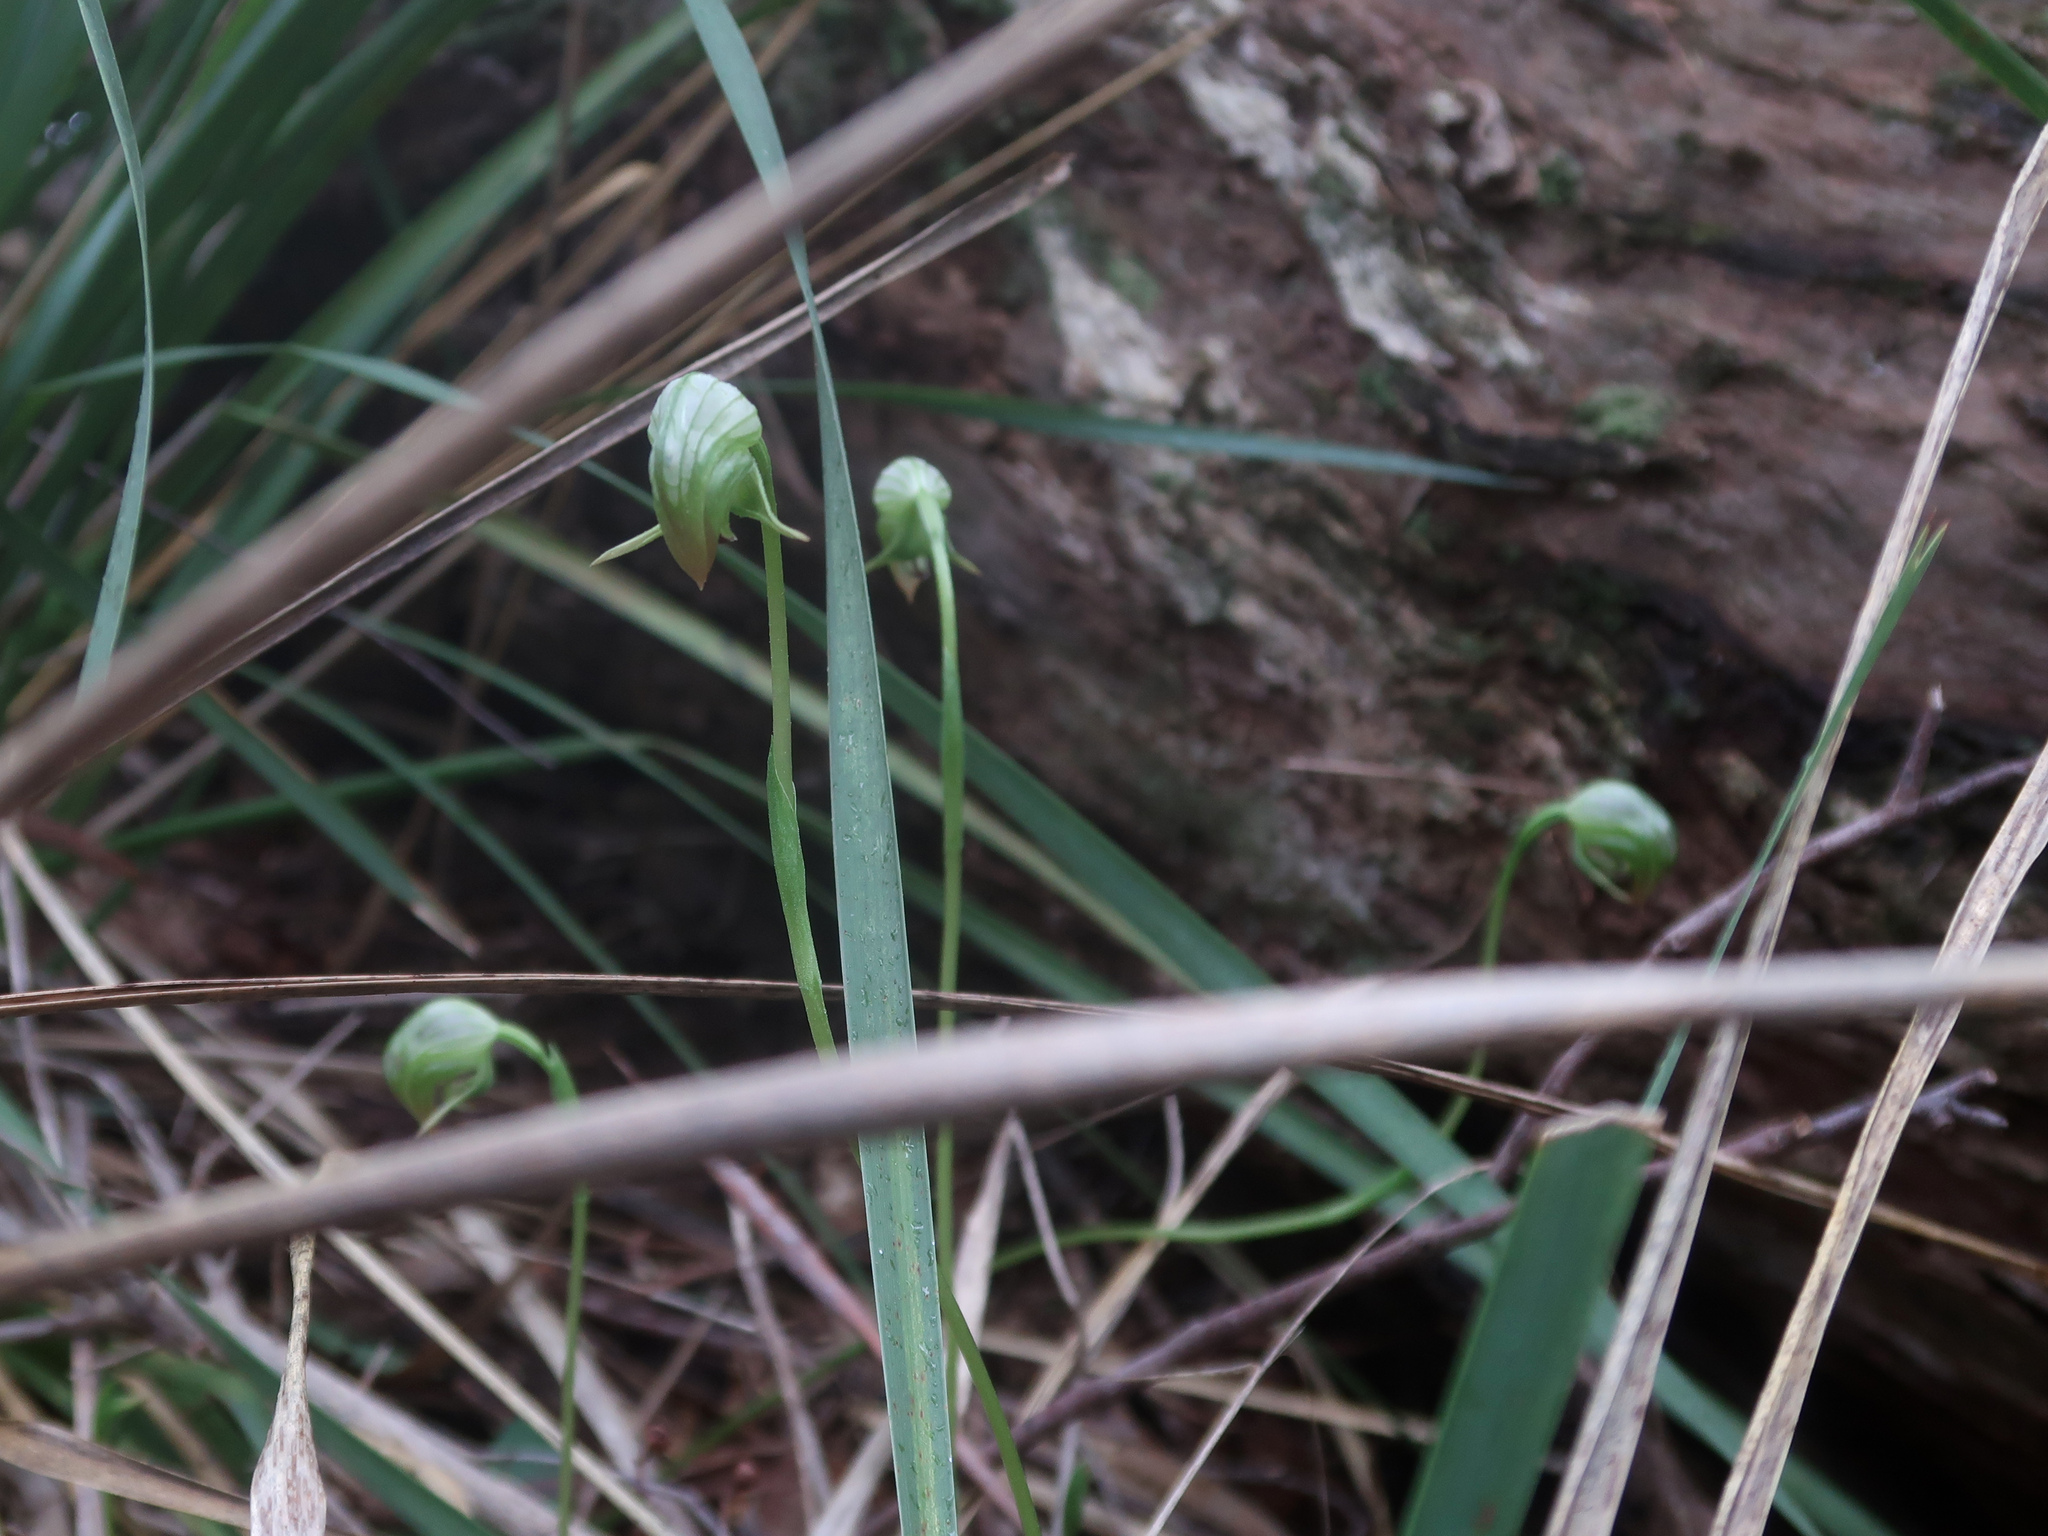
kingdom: Plantae
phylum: Tracheophyta
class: Liliopsida
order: Asparagales
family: Orchidaceae
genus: Pterostylis
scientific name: Pterostylis nutans
